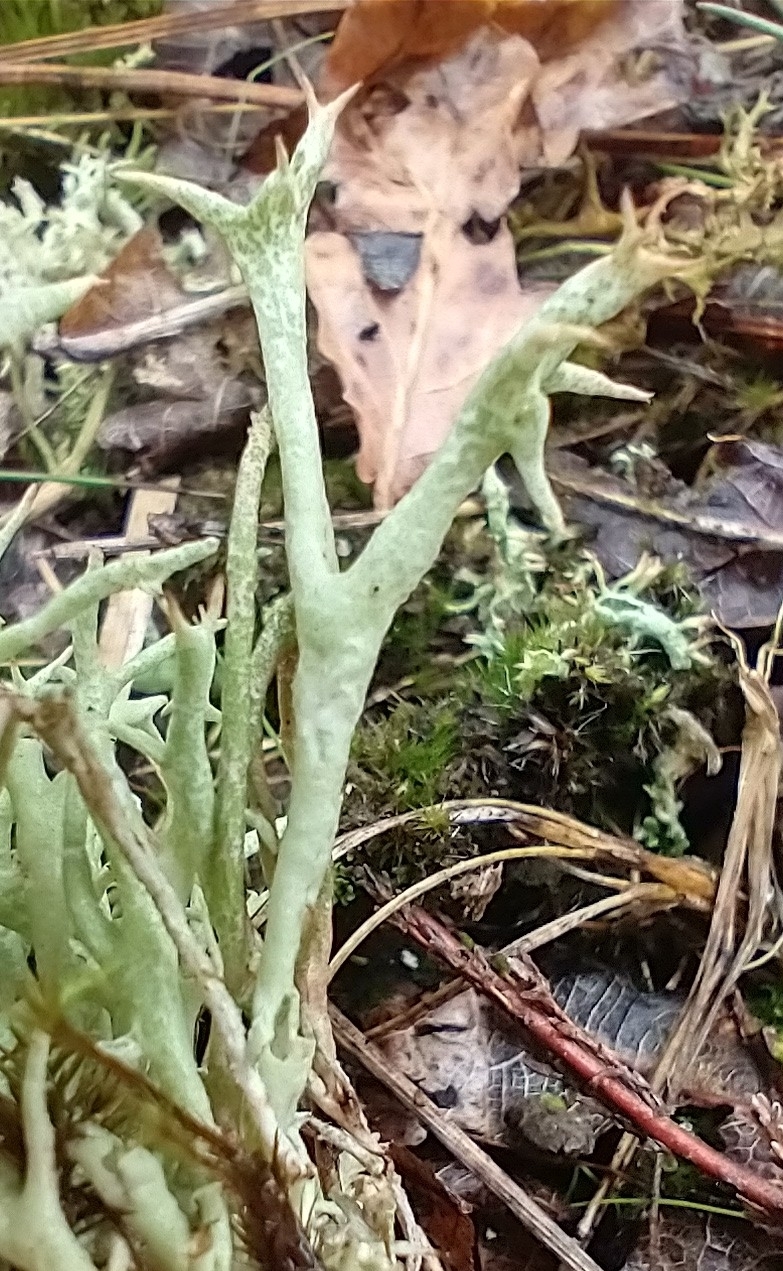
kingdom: Fungi
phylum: Ascomycota
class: Lecanoromycetes
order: Lecanorales
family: Cladoniaceae
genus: Cladonia
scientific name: Cladonia uncialis
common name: Thorn lichen
